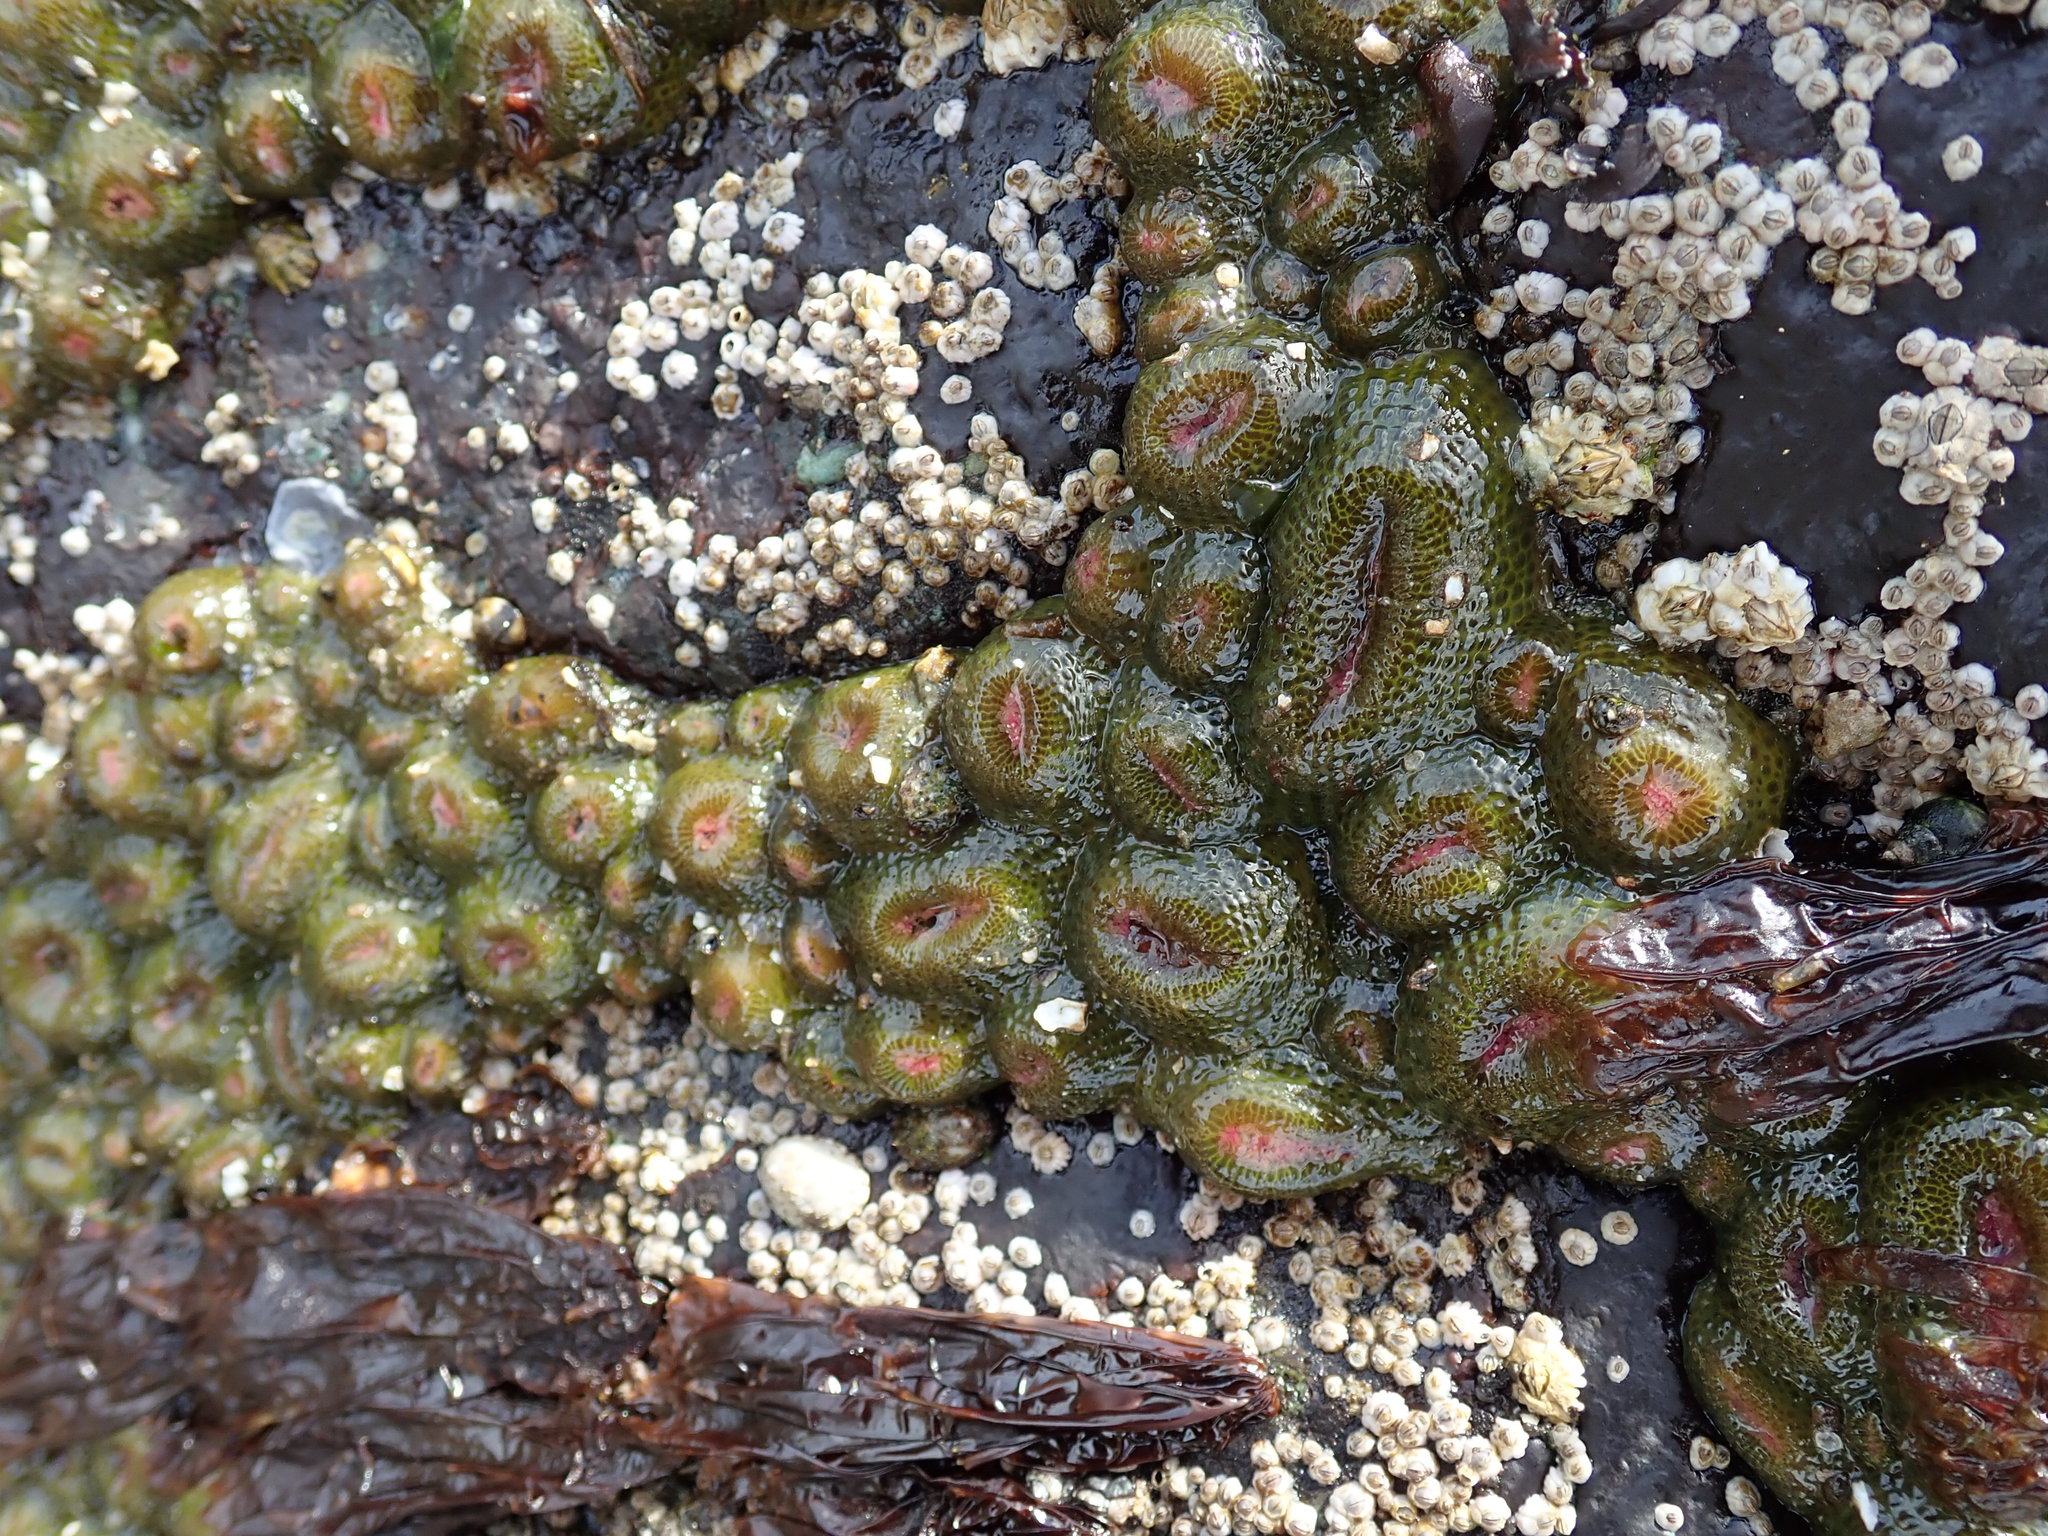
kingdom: Animalia
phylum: Cnidaria
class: Anthozoa
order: Actiniaria
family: Actiniidae
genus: Anthopleura
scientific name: Anthopleura elegantissima
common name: Clonal anemone
